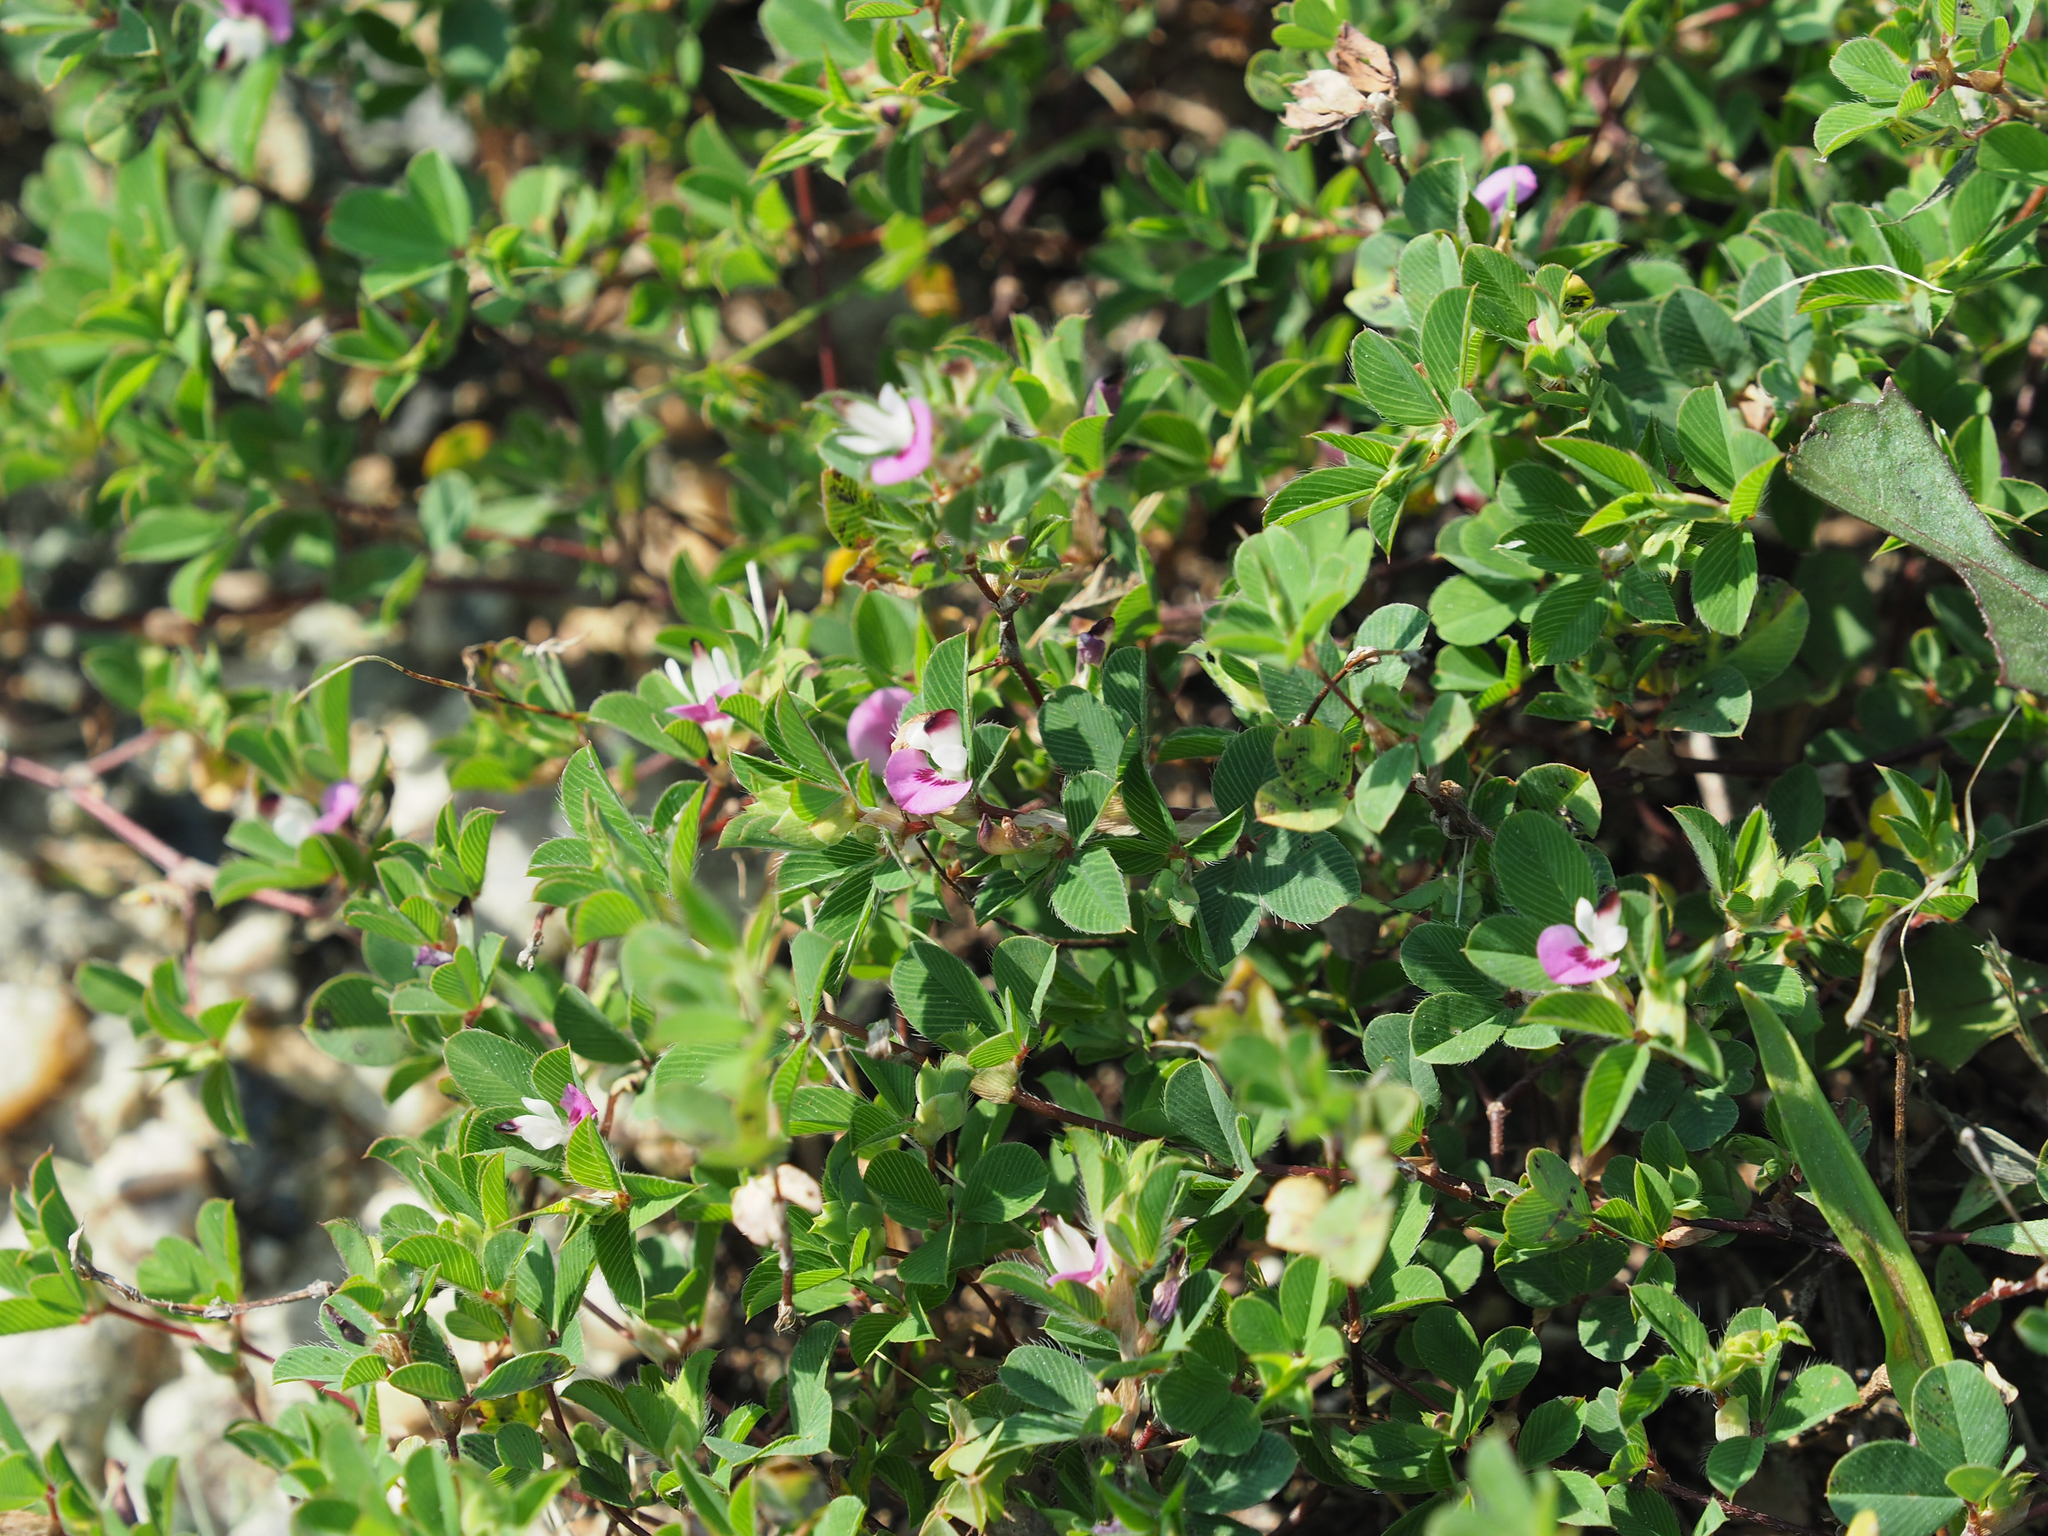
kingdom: Plantae
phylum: Tracheophyta
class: Magnoliopsida
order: Fabales
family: Fabaceae
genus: Kummerowia
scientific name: Kummerowia stipulacea
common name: Korean clover
